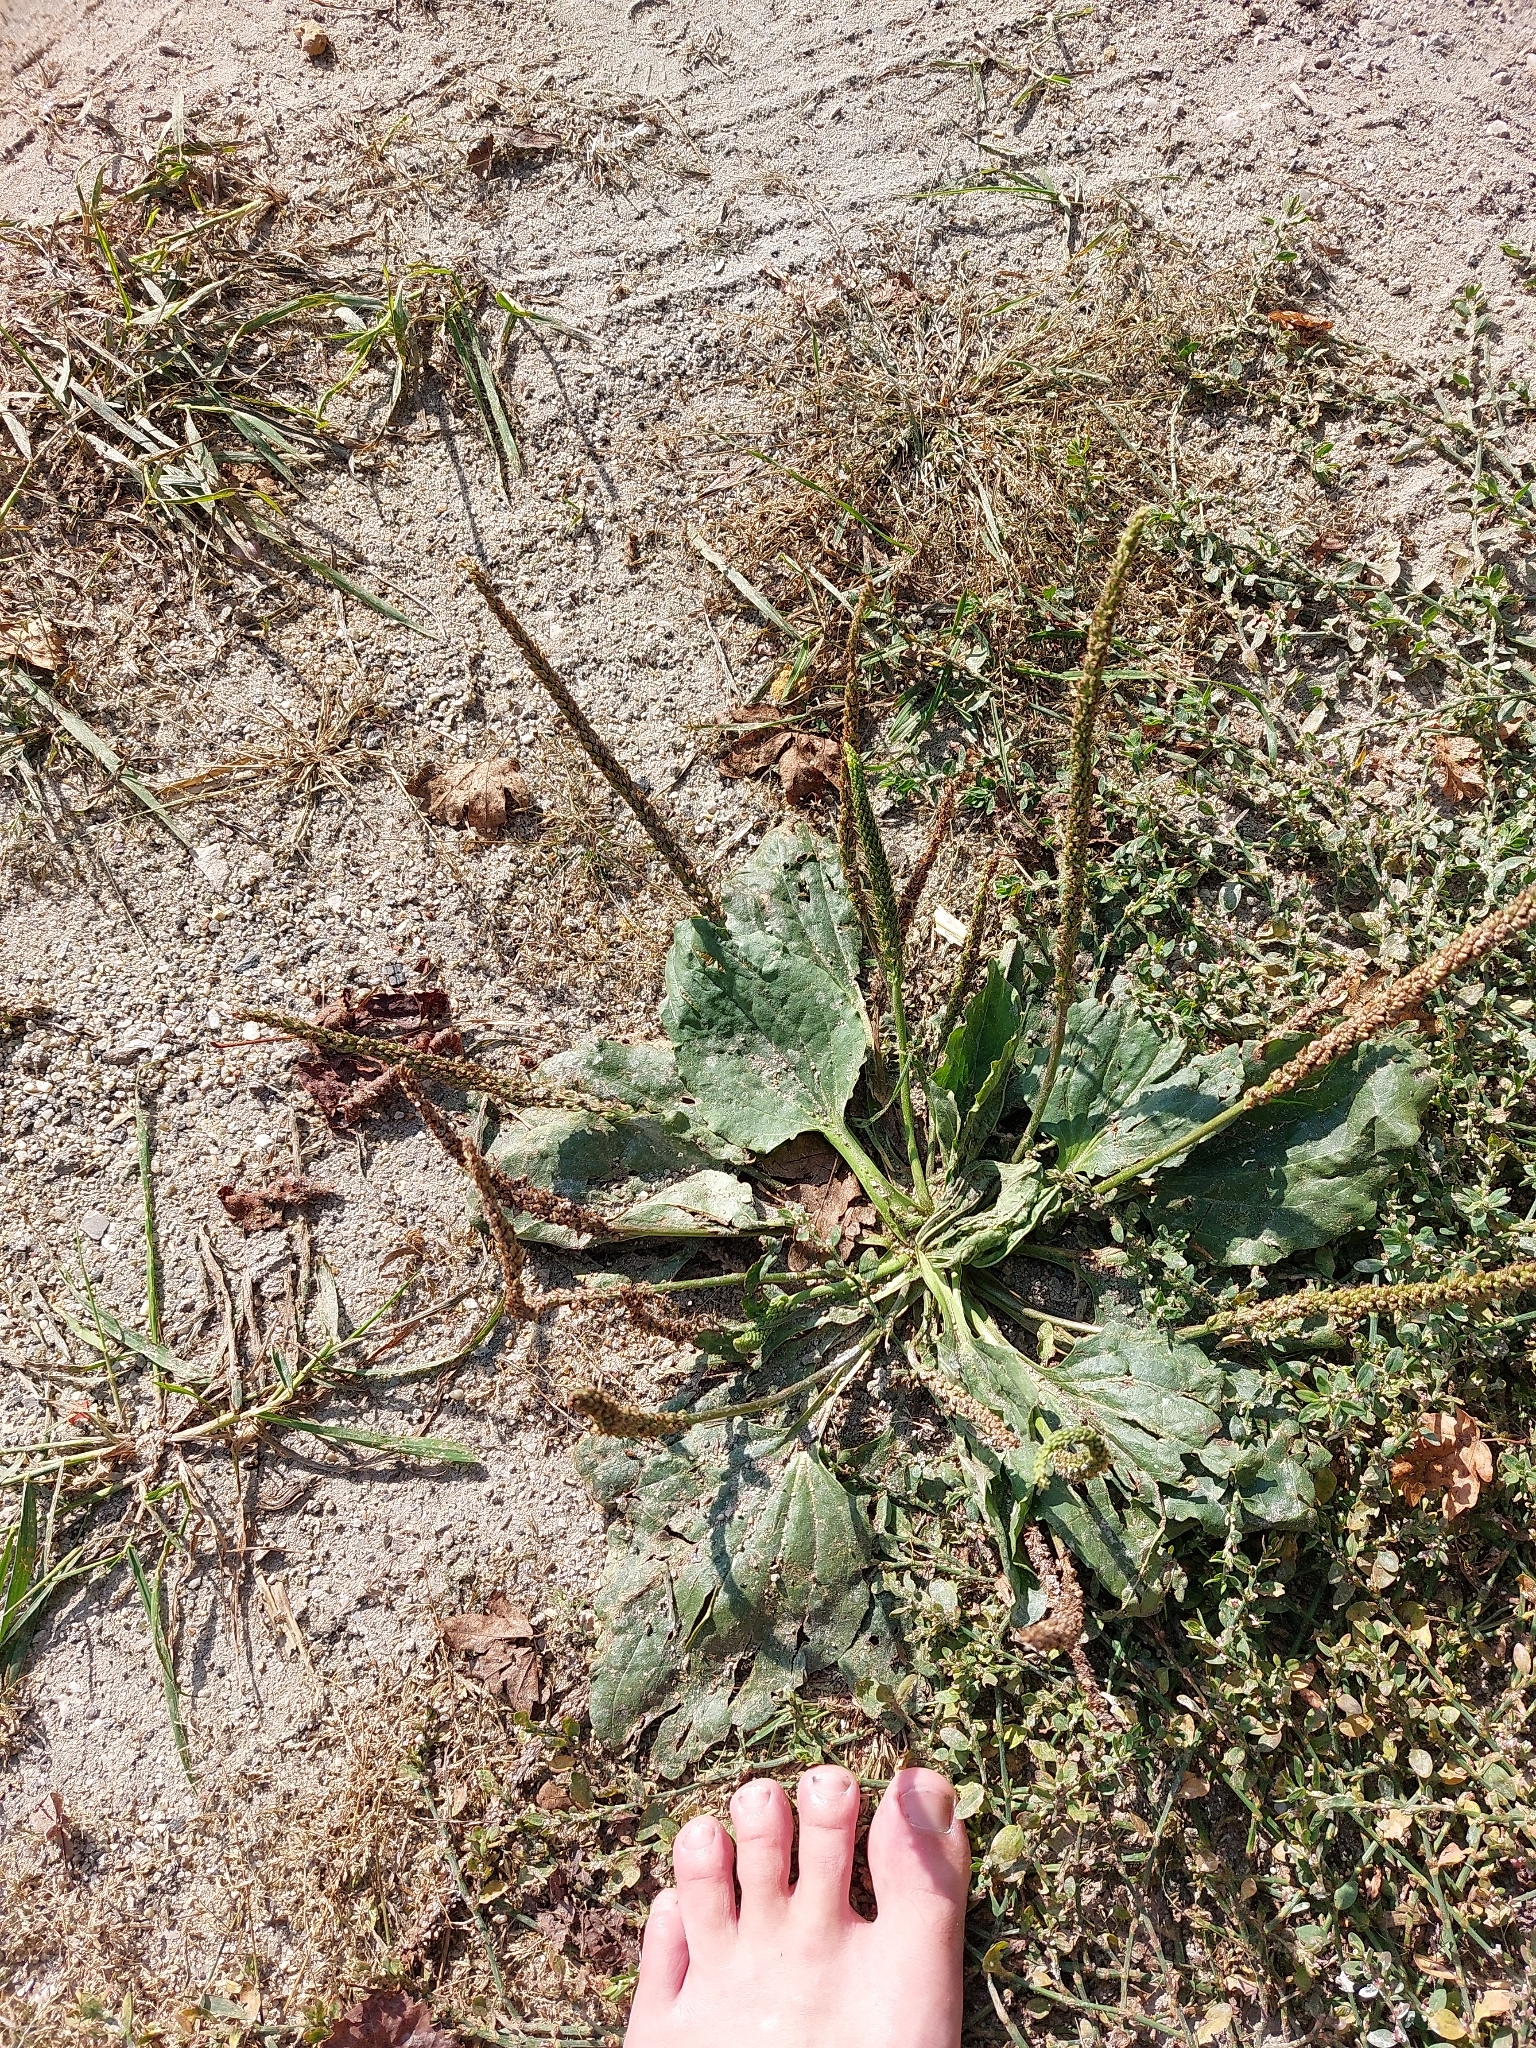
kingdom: Plantae
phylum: Tracheophyta
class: Magnoliopsida
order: Lamiales
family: Plantaginaceae
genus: Plantago
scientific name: Plantago major
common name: Common plantain
